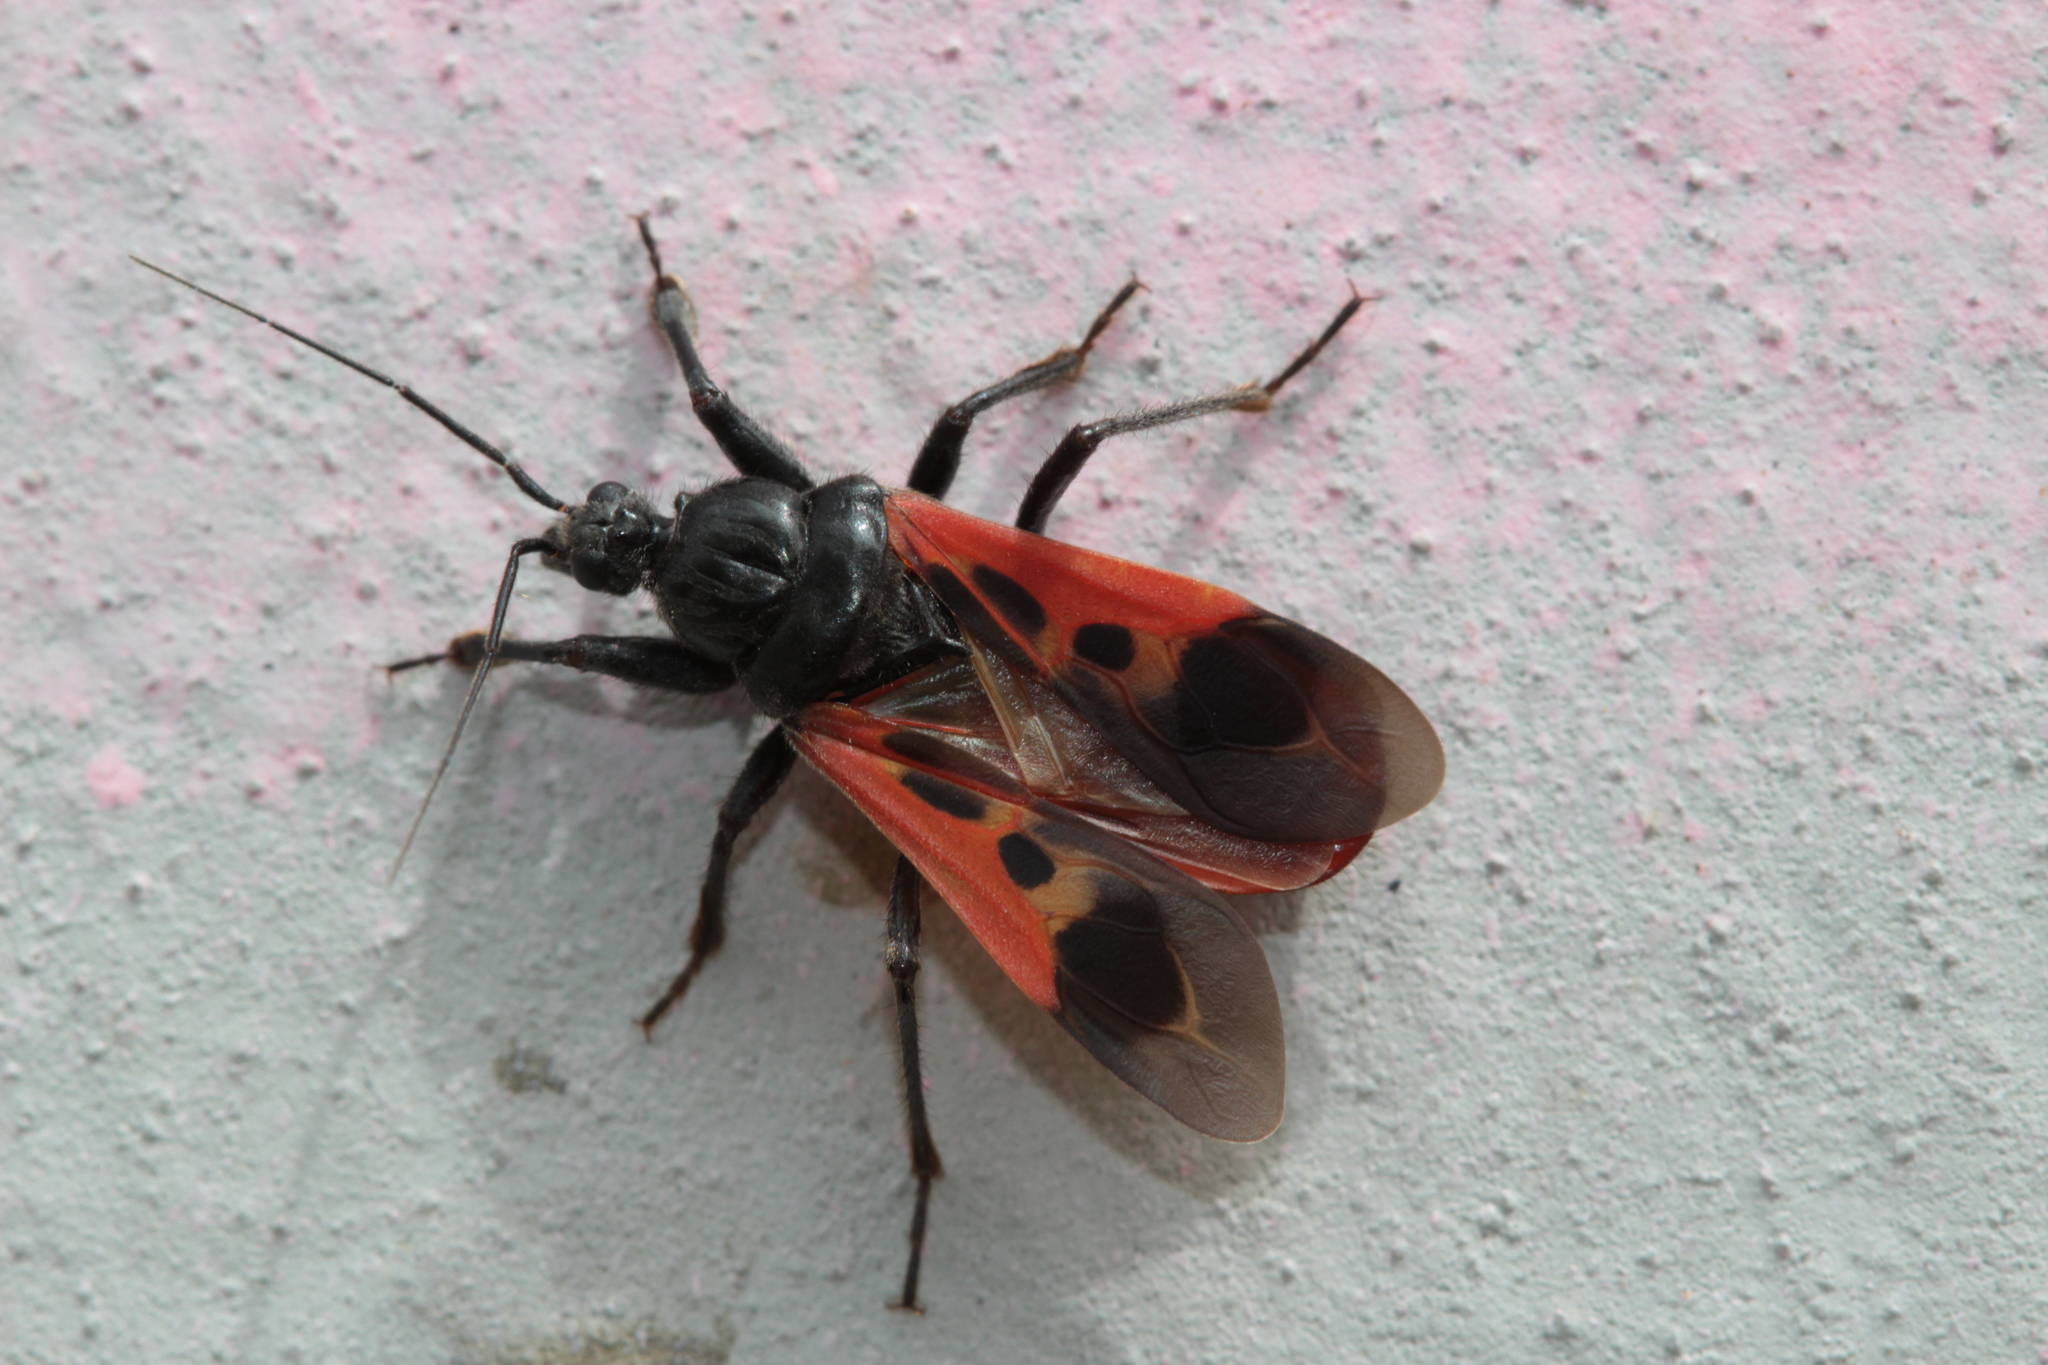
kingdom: Animalia
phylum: Arthropoda
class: Insecta
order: Hemiptera
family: Reduviidae
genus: Peirates
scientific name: Peirates hybridus
